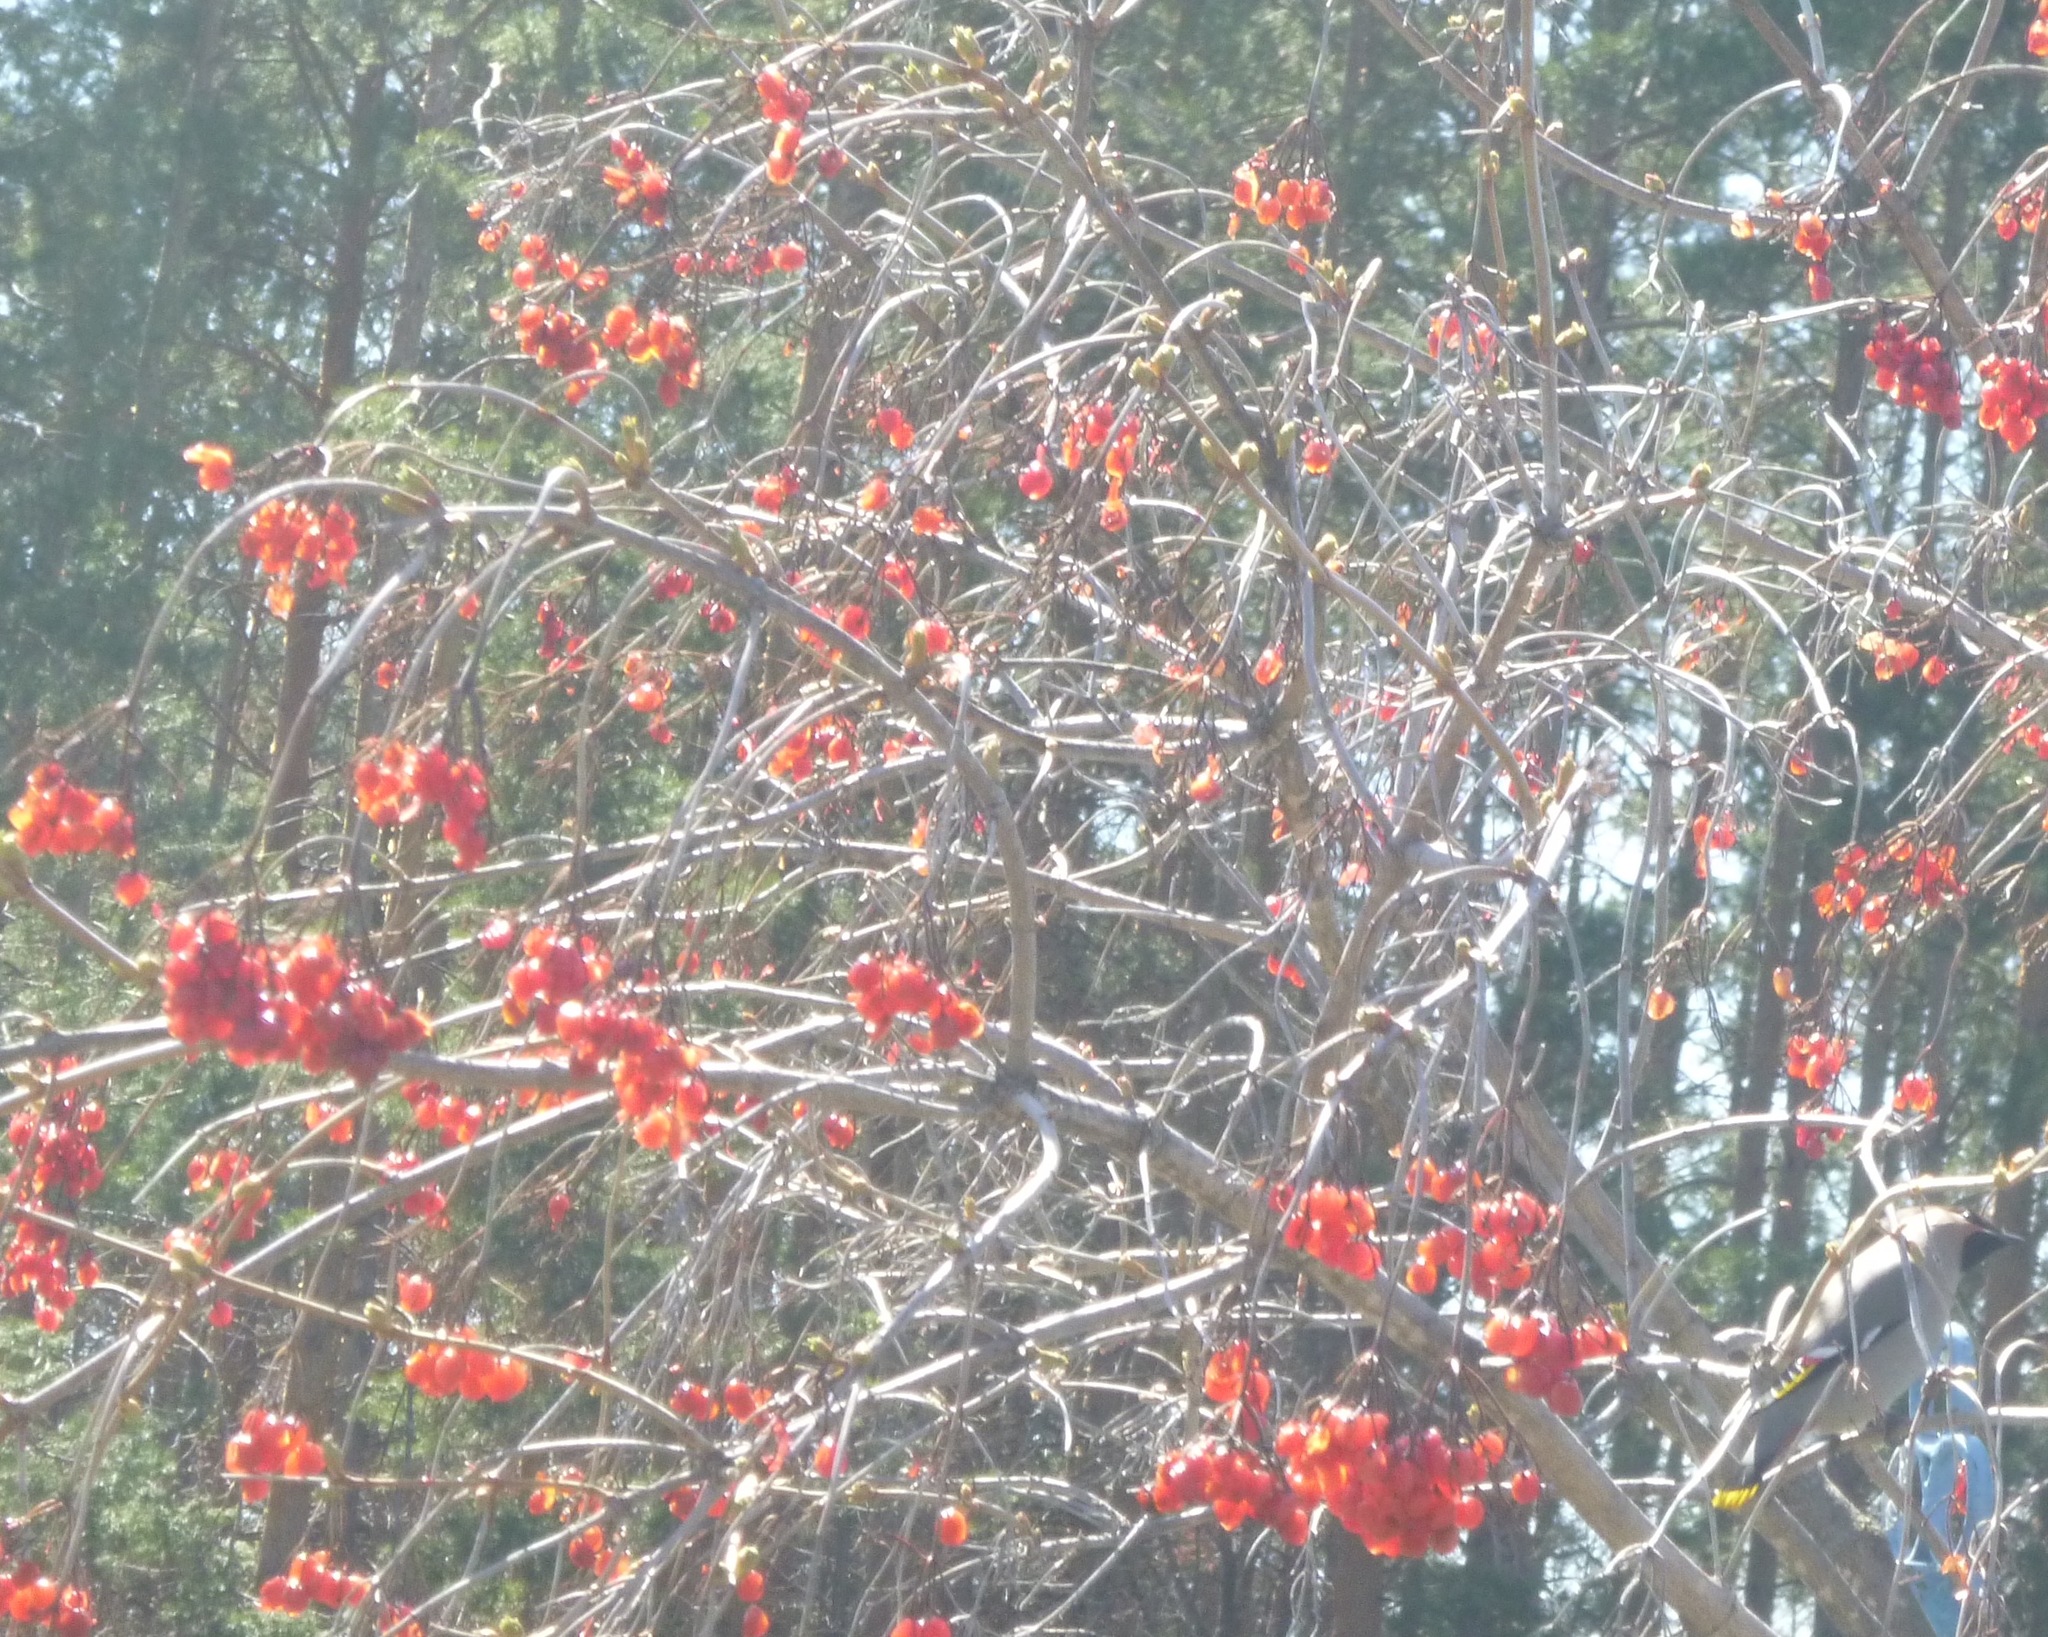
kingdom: Animalia
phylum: Chordata
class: Aves
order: Passeriformes
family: Bombycillidae
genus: Bombycilla
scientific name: Bombycilla garrulus
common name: Bohemian waxwing
